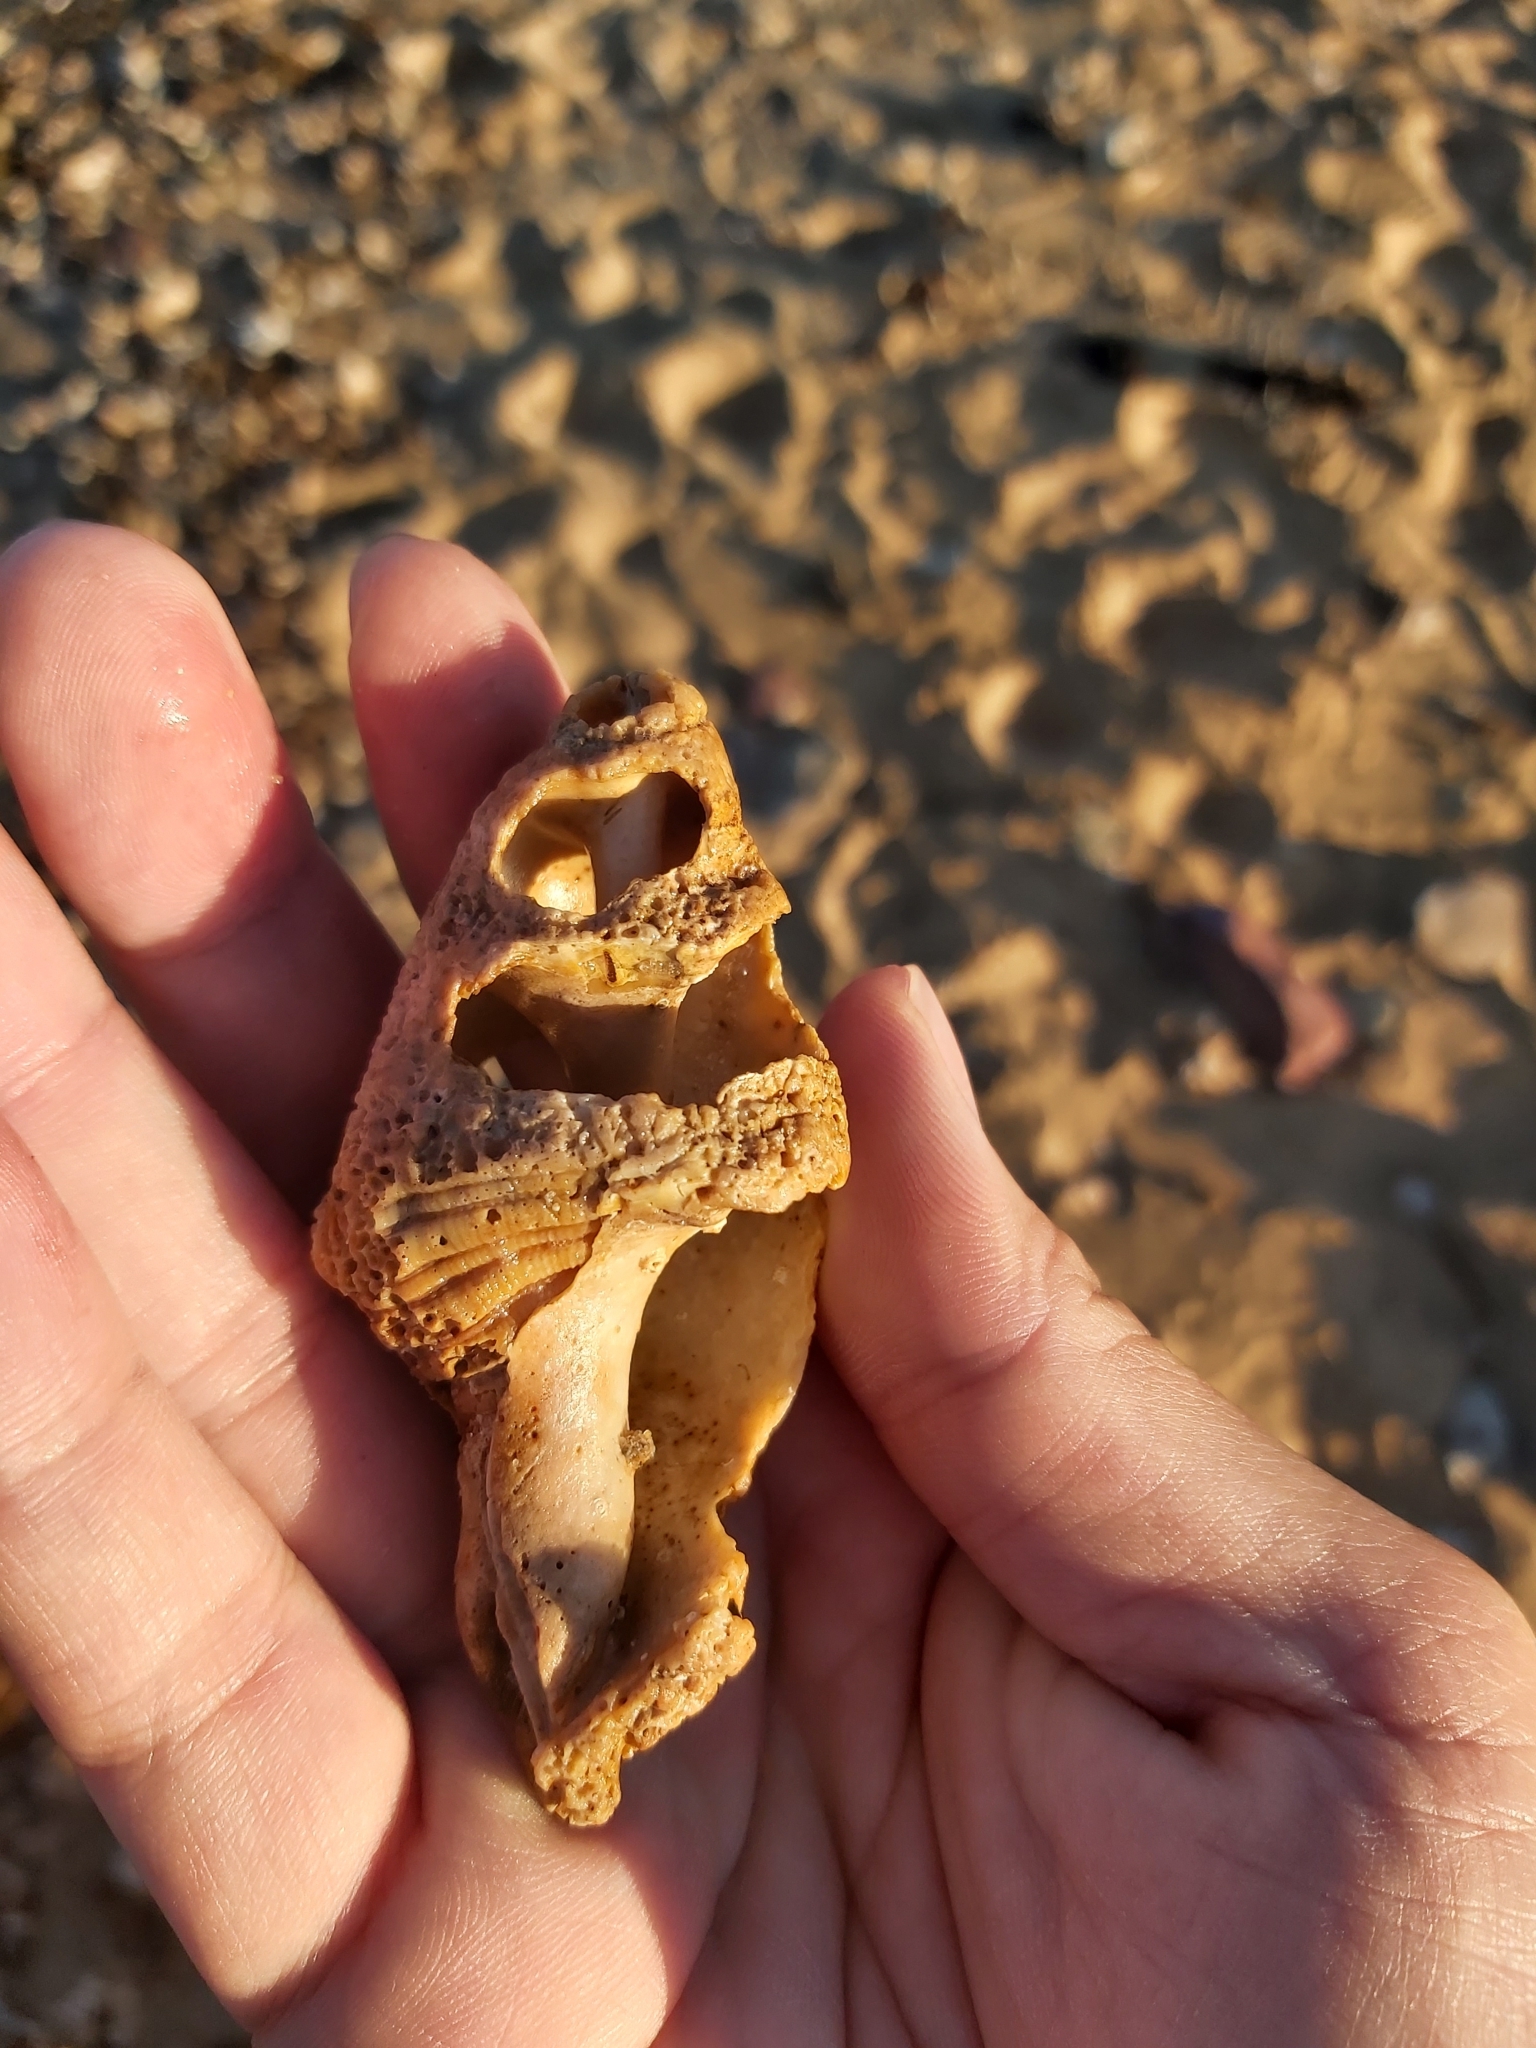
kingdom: Animalia
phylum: Mollusca
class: Gastropoda
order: Littorinimorpha
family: Cymatiidae
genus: Cabestana
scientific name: Cabestana spengleri
